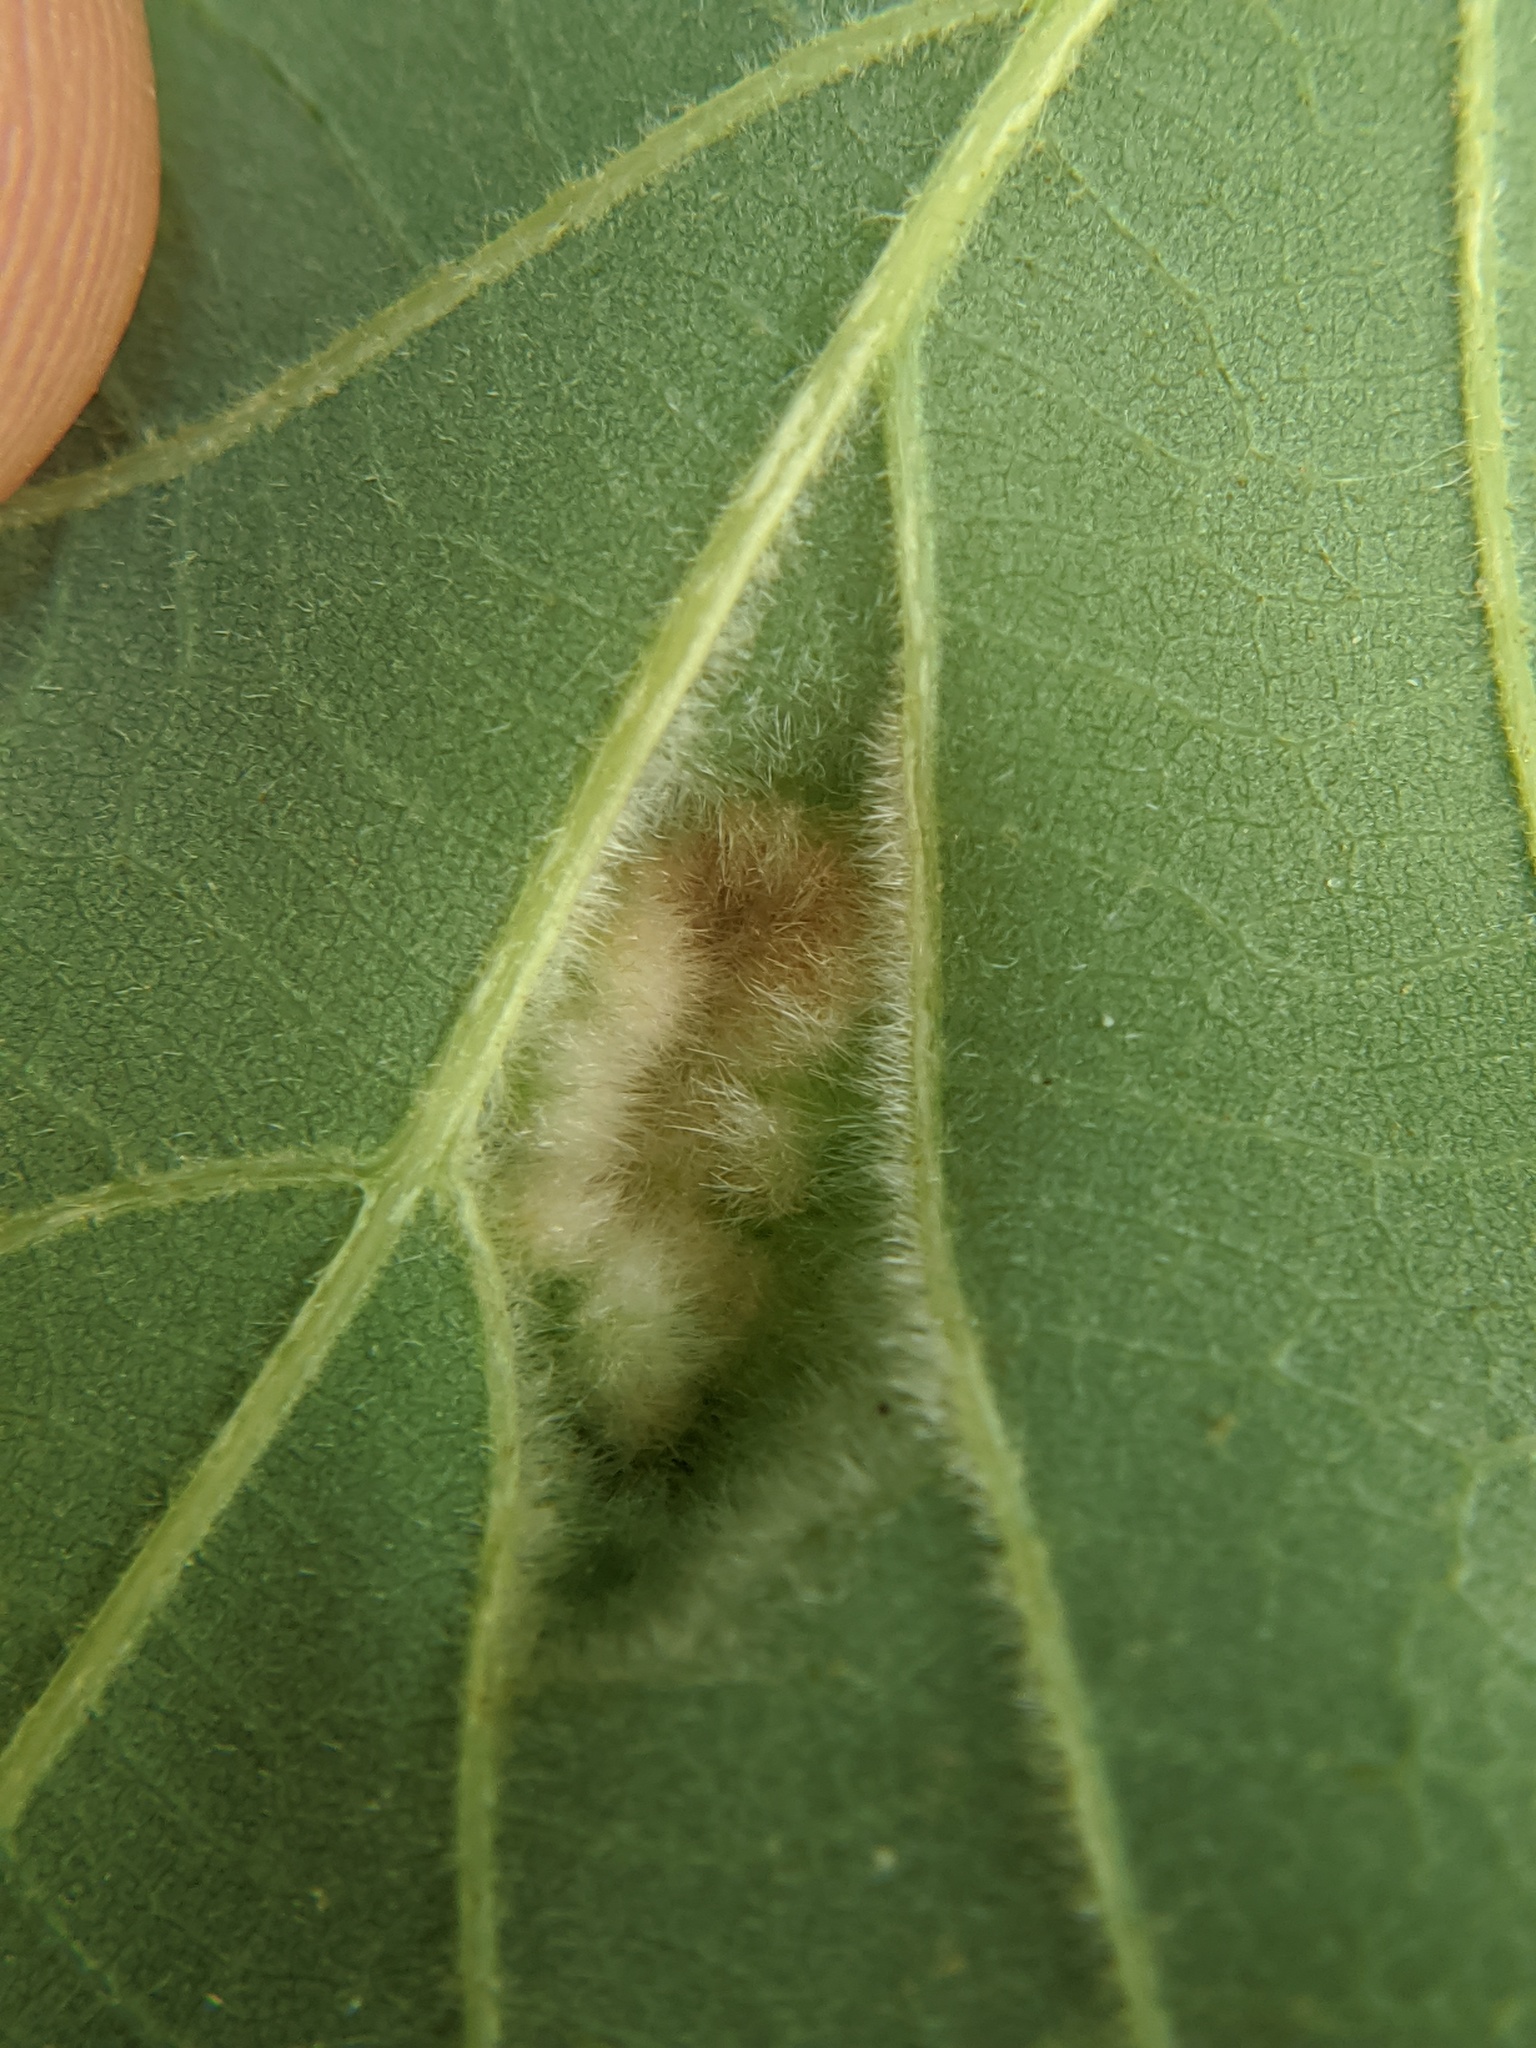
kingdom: Animalia
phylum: Arthropoda
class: Arachnida
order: Trombidiformes
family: Eriophyidae
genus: Aceria
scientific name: Aceria quercina
